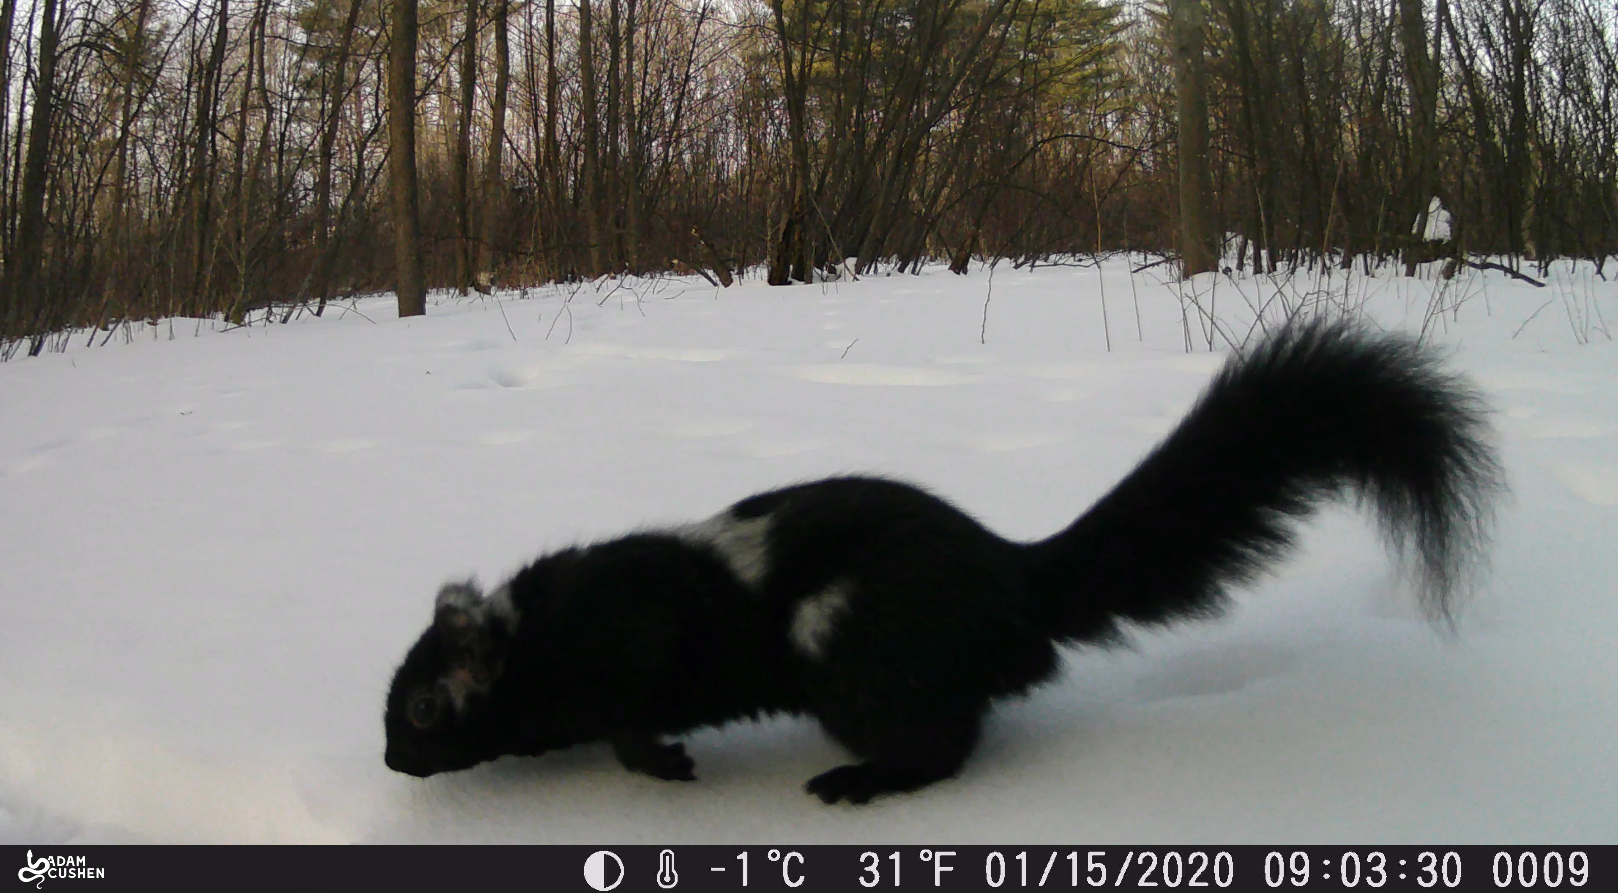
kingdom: Animalia
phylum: Chordata
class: Mammalia
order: Rodentia
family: Sciuridae
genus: Sciurus
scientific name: Sciurus carolinensis
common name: Eastern gray squirrel
